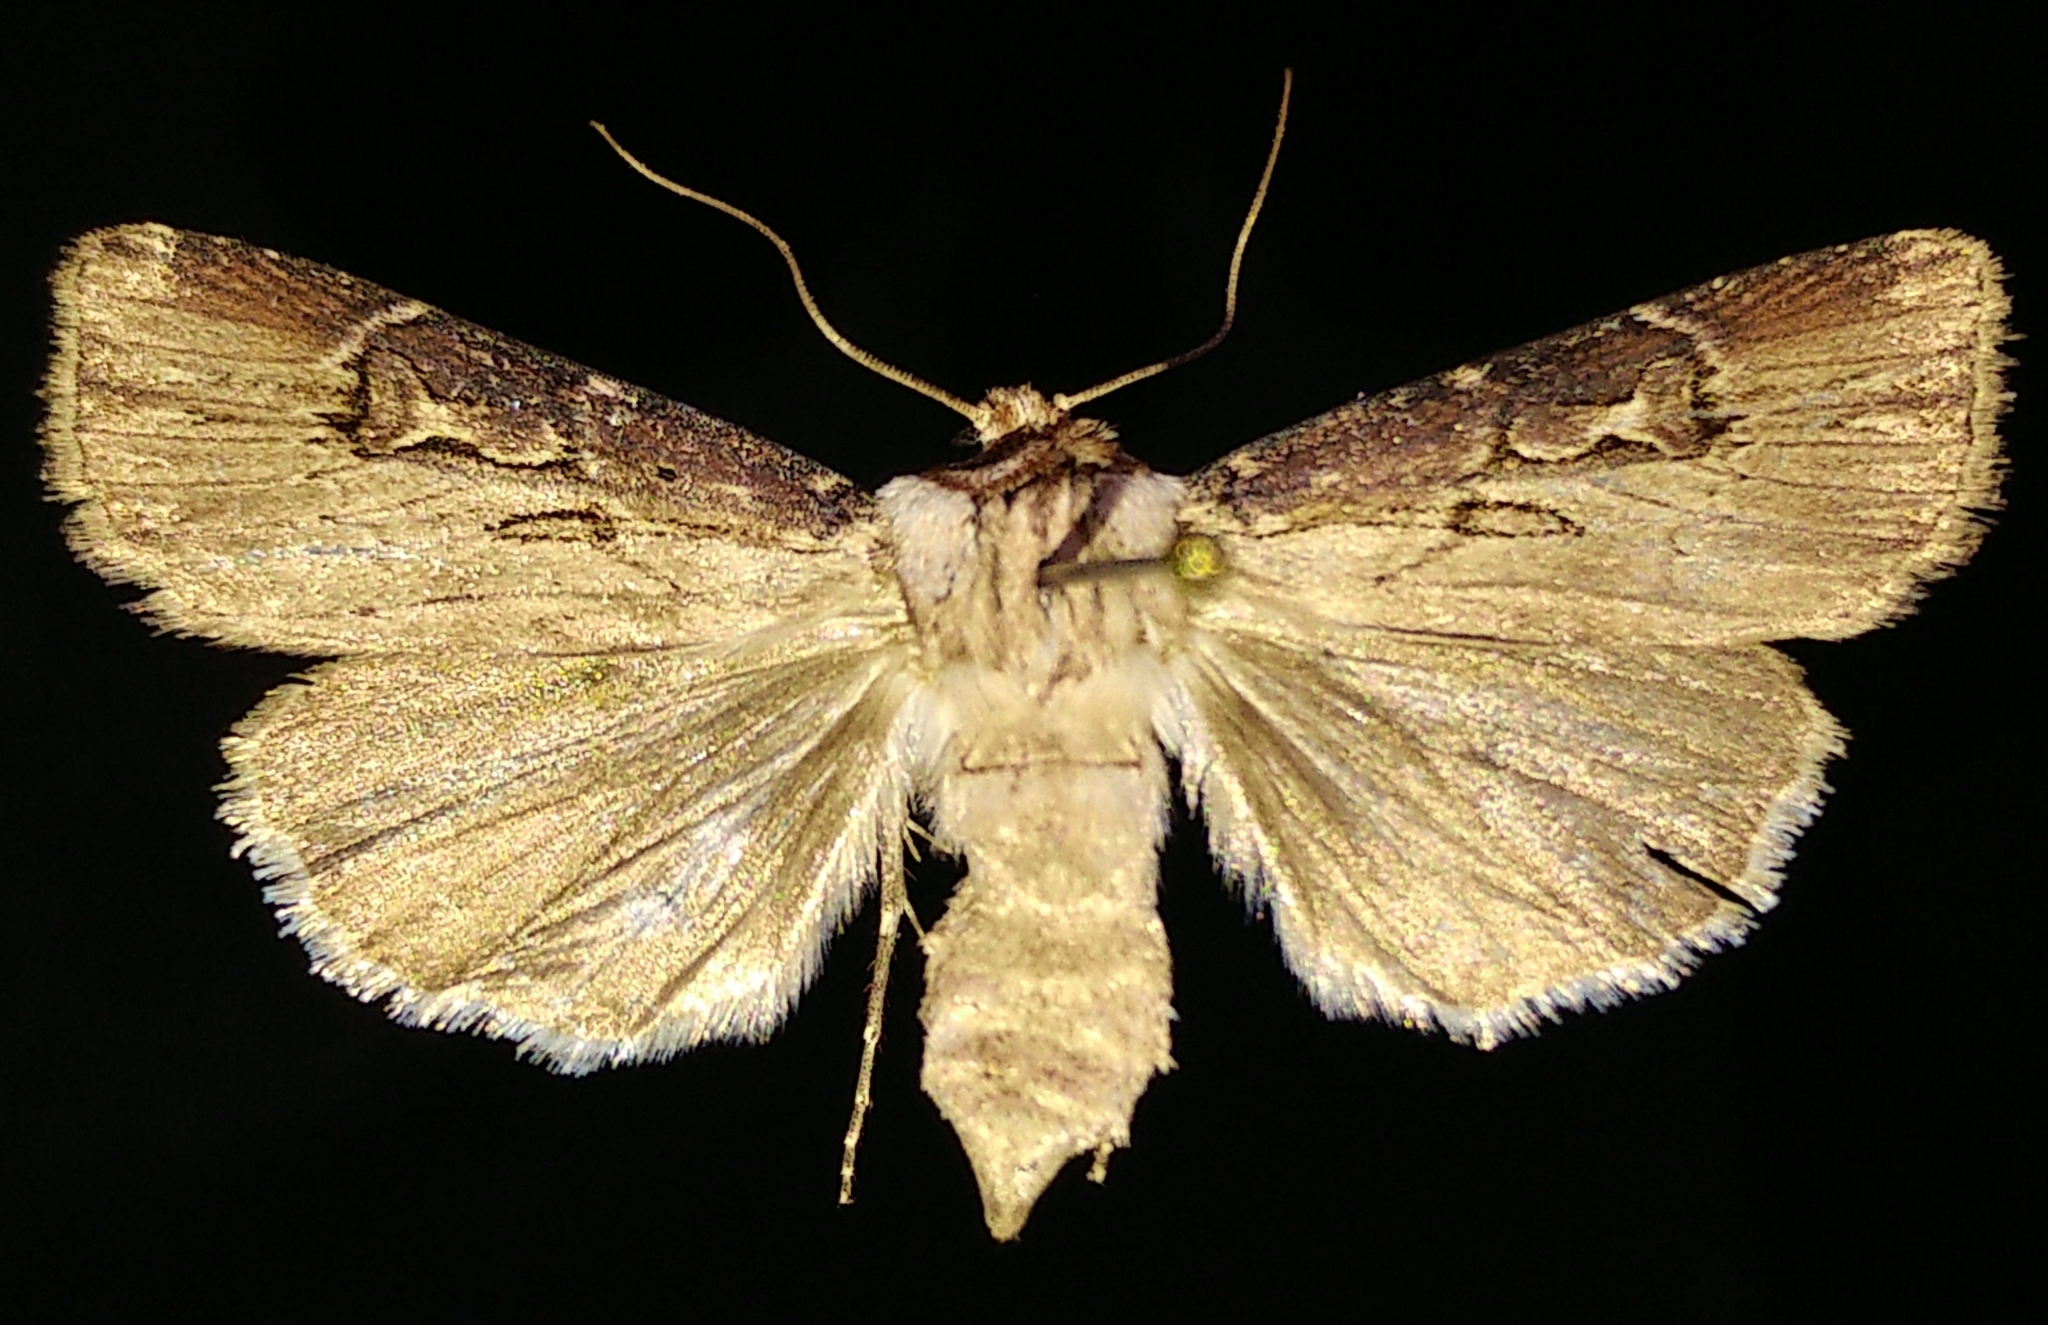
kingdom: Animalia
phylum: Arthropoda
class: Insecta
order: Lepidoptera
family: Noctuidae
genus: Agrotis
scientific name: Agrotis stigmosa
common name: Spotted dart
